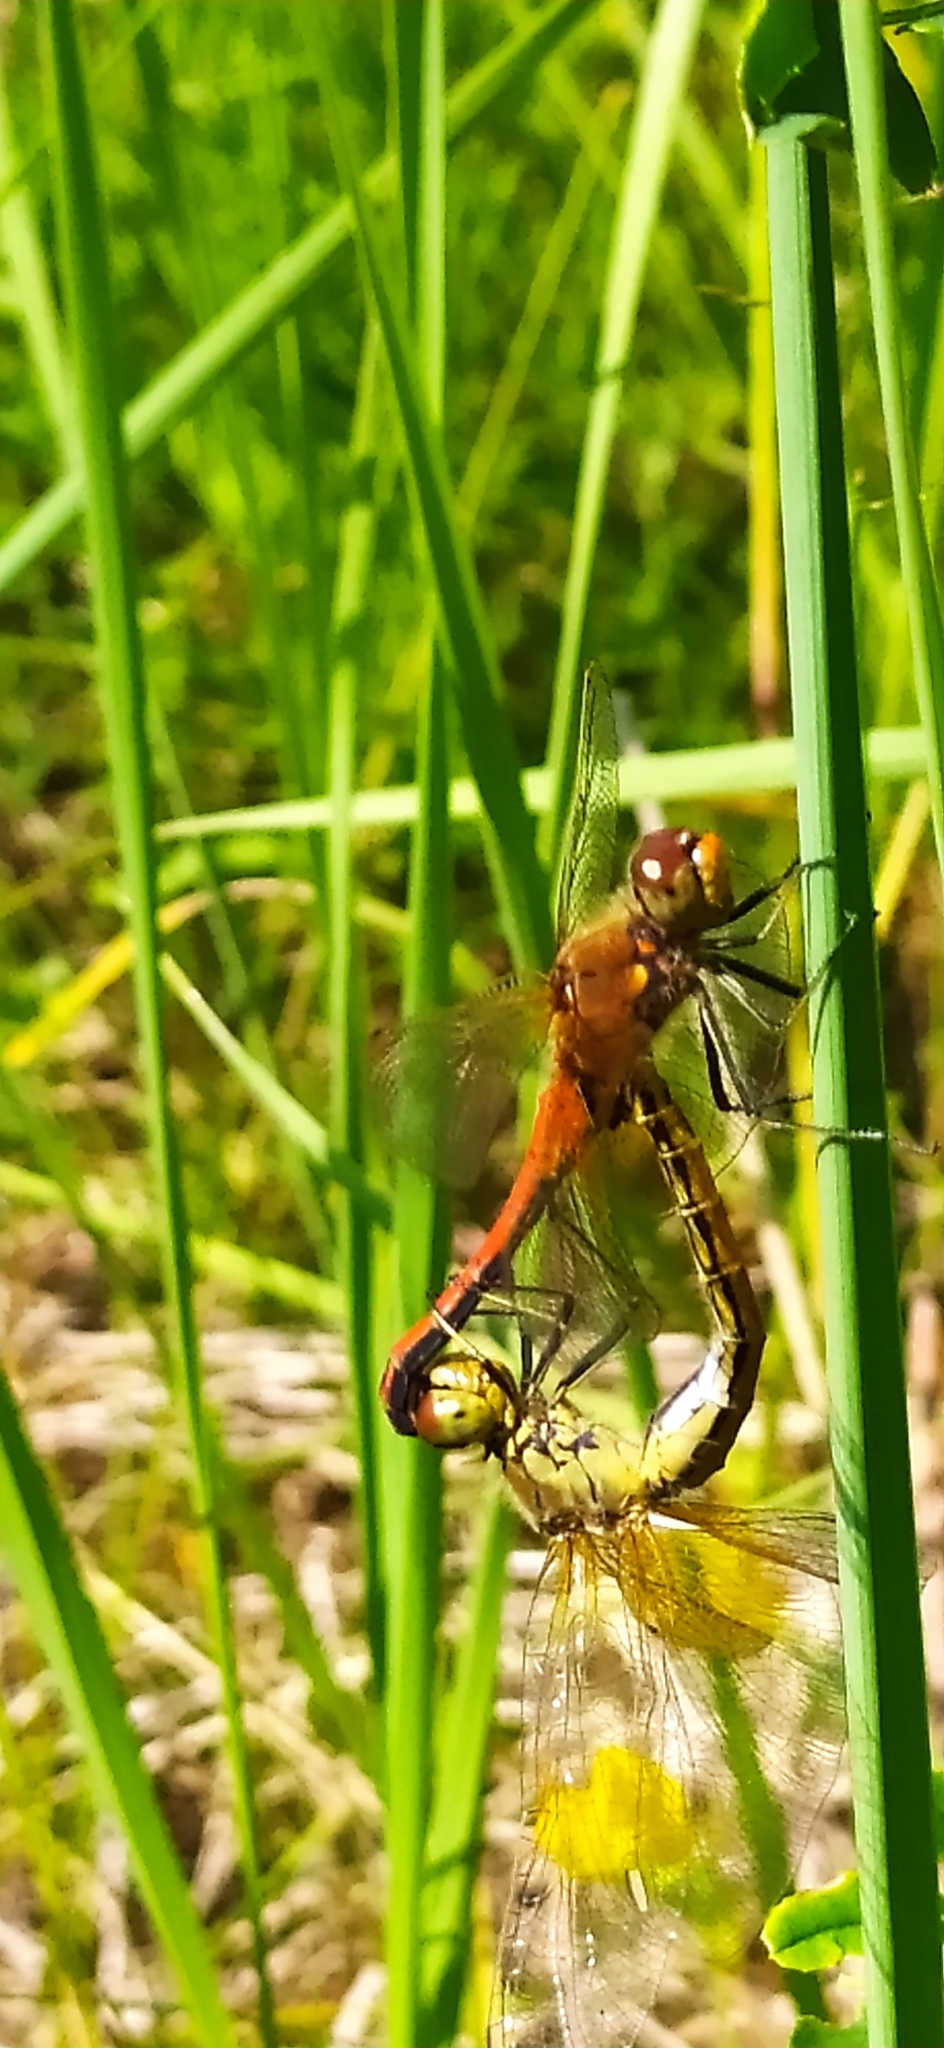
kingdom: Animalia
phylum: Arthropoda
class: Insecta
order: Odonata
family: Libellulidae
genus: Sympetrum
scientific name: Sympetrum flaveolum
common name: Yellow-winged darter
